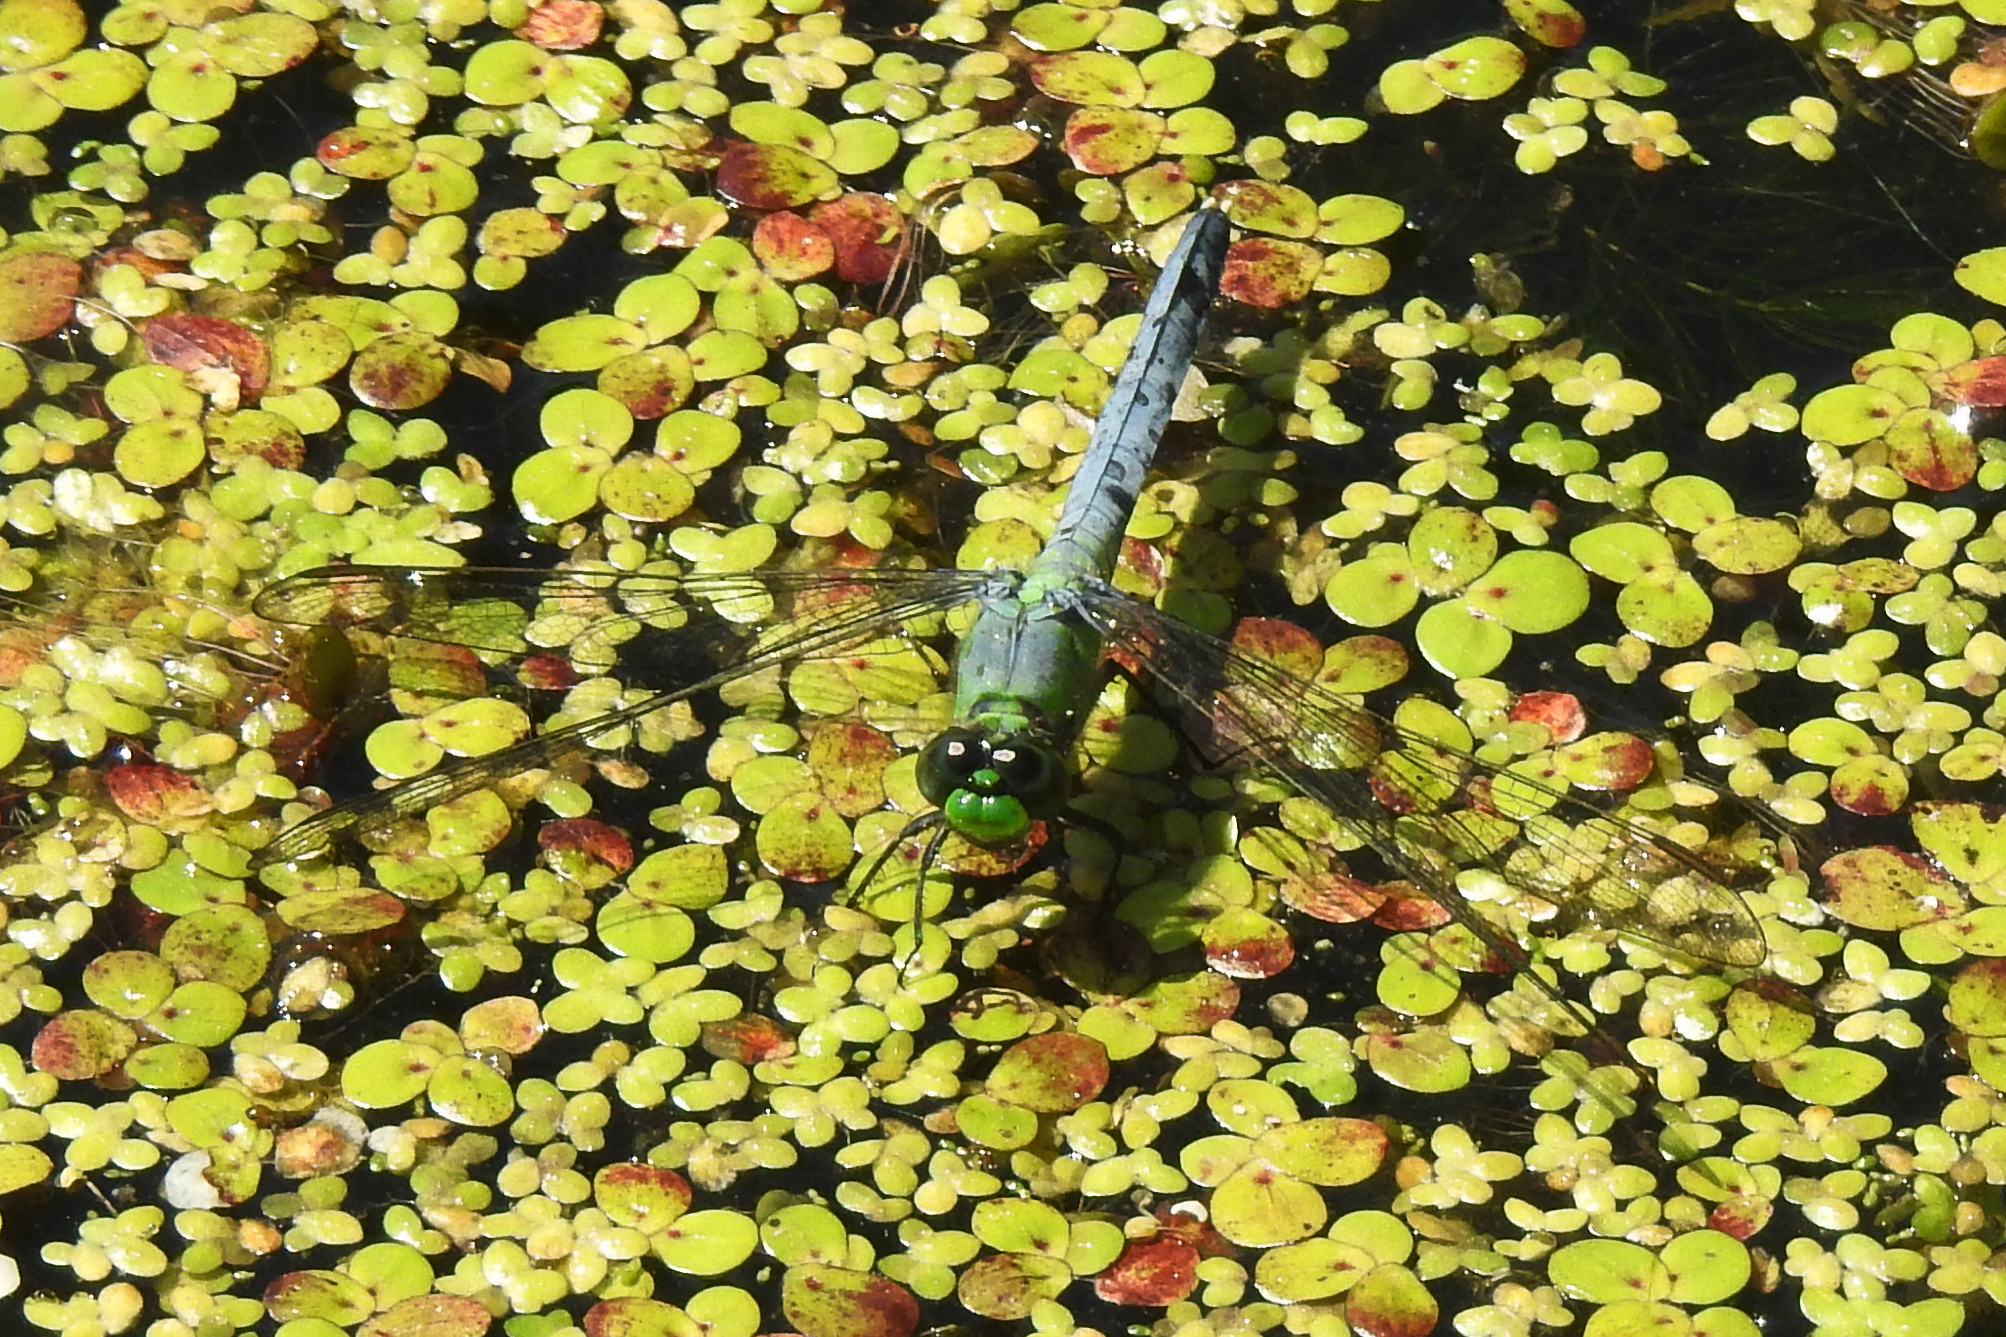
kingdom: Animalia
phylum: Arthropoda
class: Insecta
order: Odonata
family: Libellulidae
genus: Erythemis
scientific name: Erythemis simplicicollis
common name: Eastern pondhawk
